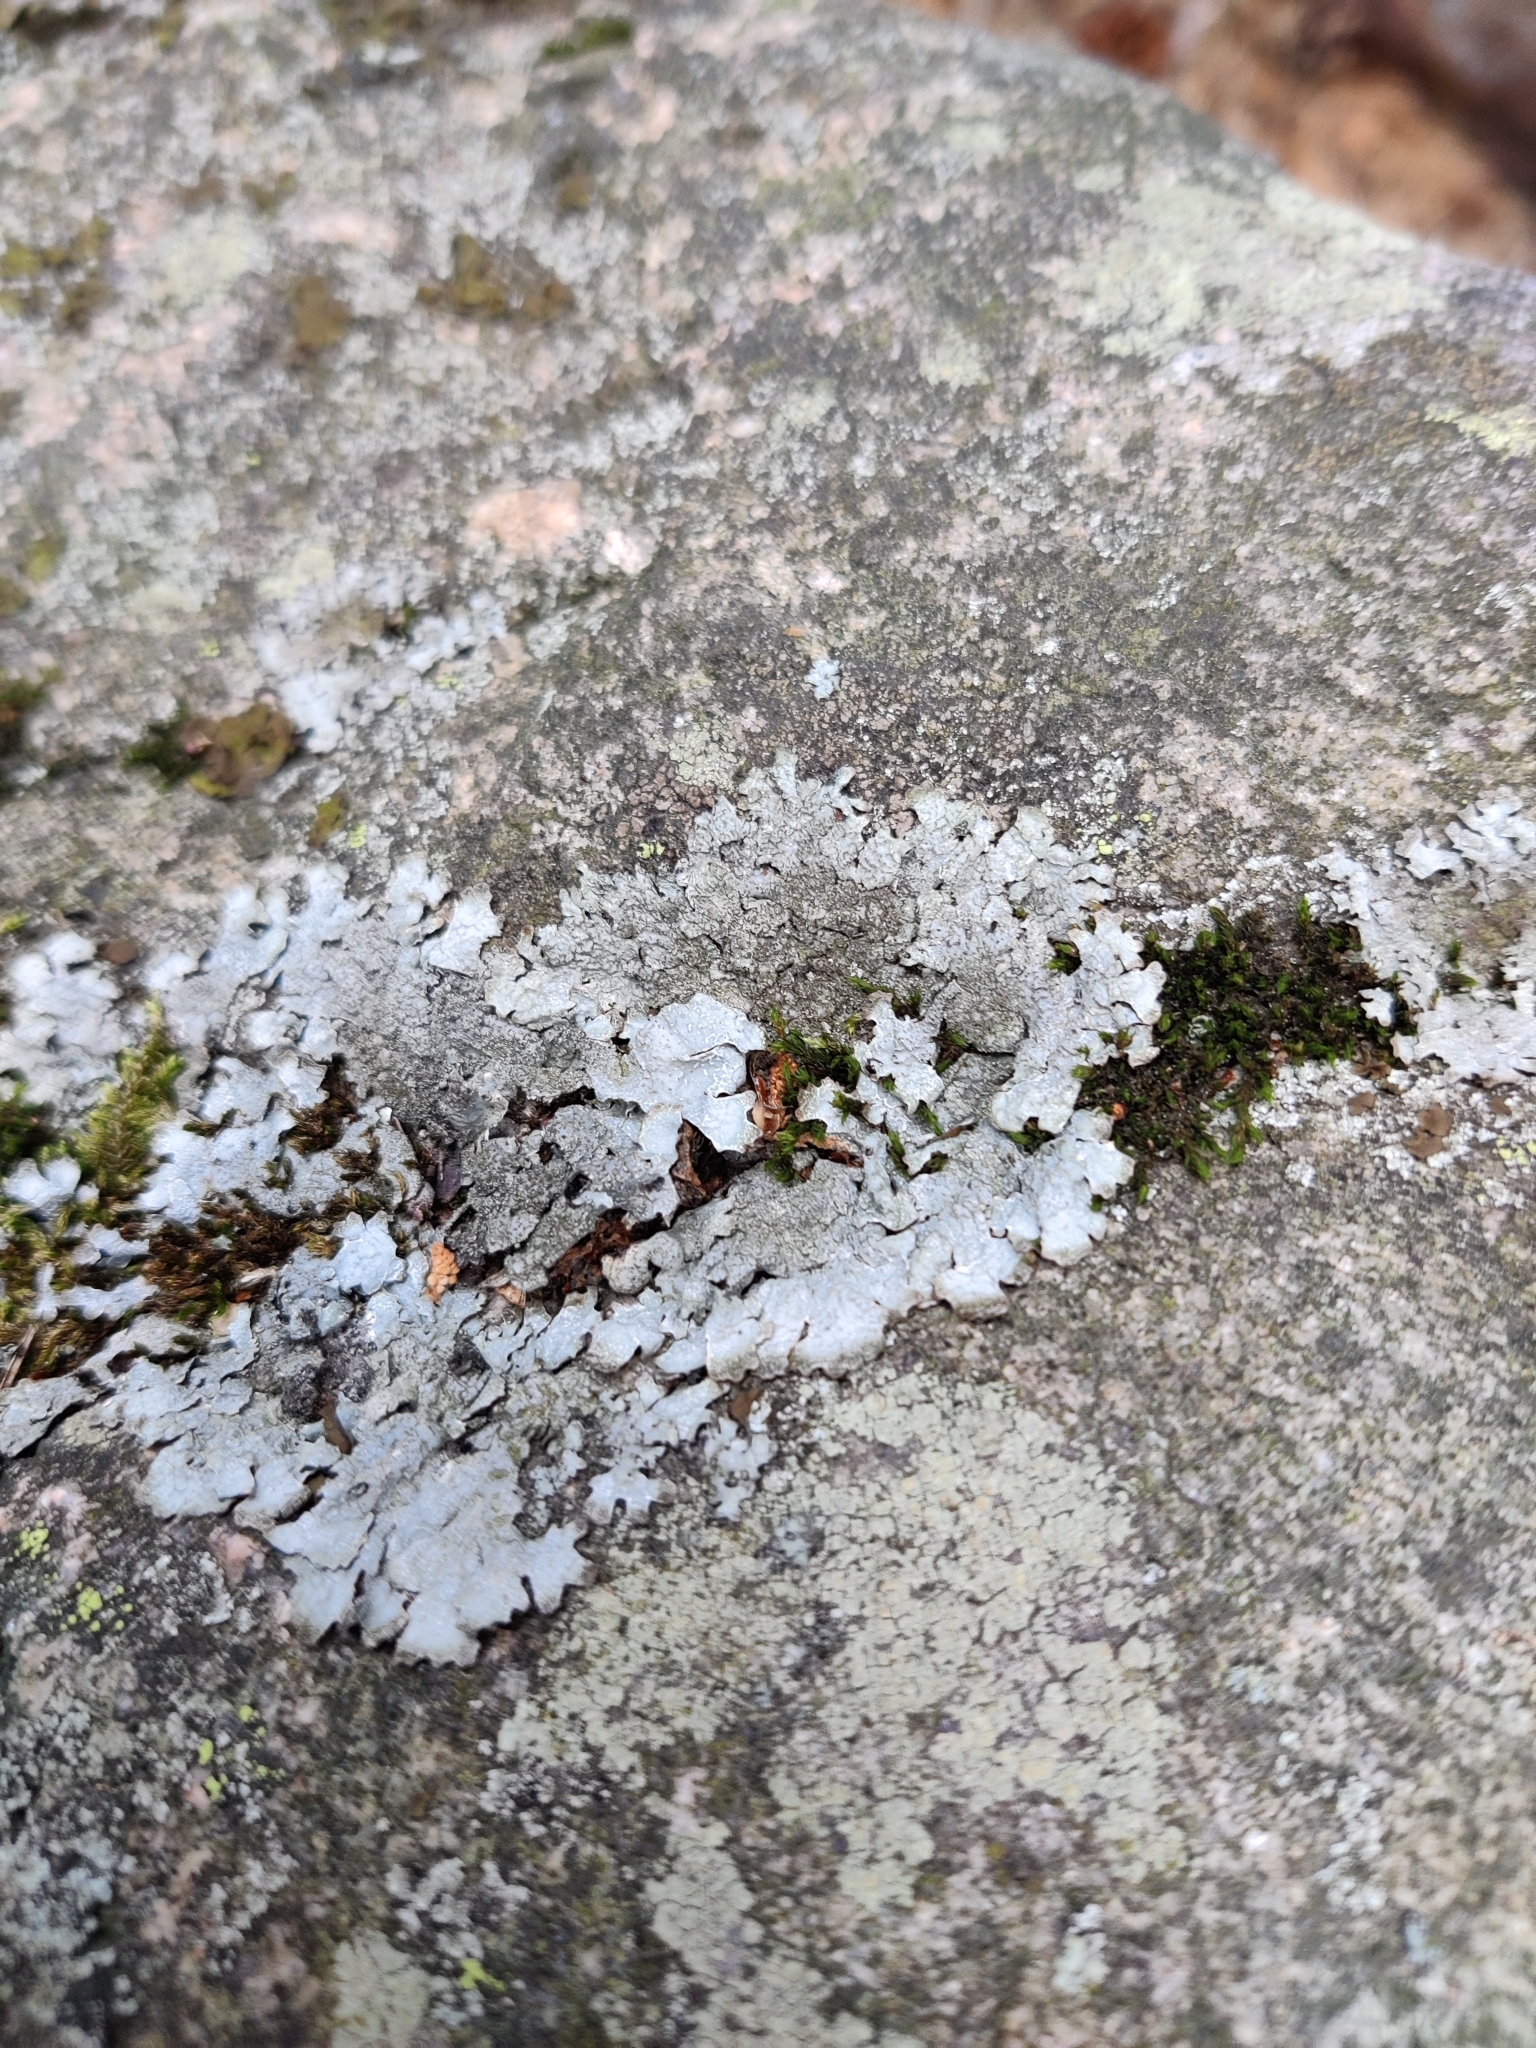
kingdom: Fungi
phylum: Ascomycota
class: Lecanoromycetes
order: Lecanorales
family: Parmeliaceae
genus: Parmelia
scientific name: Parmelia saxatilis
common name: Salted shield lichen
